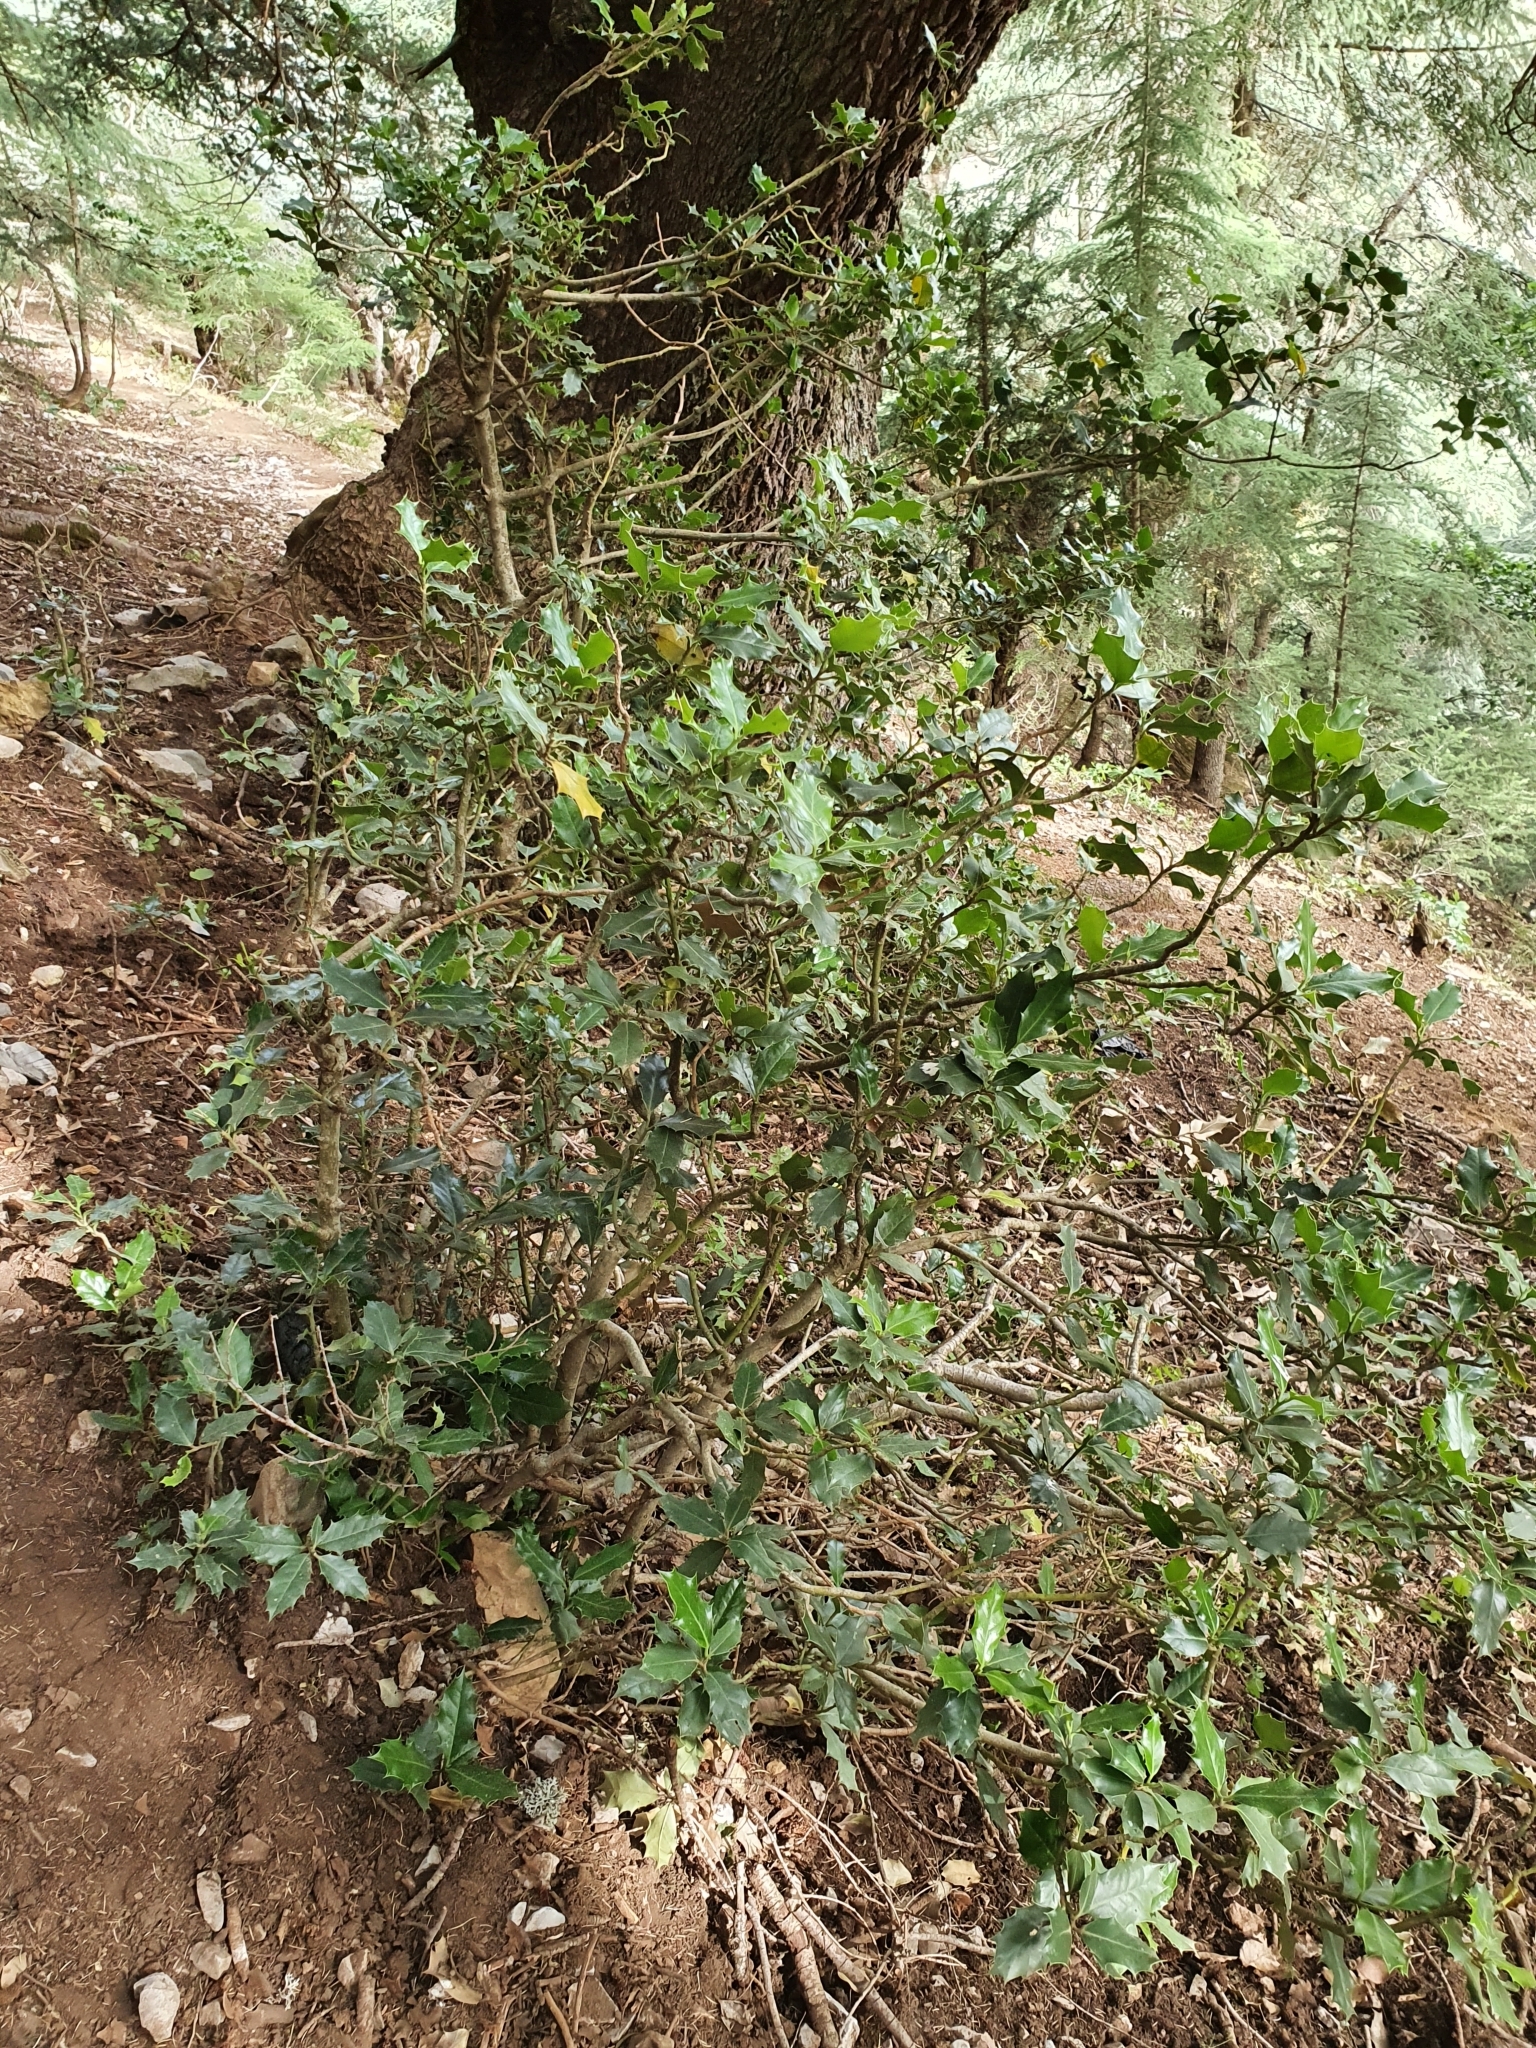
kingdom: Plantae
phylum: Tracheophyta
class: Magnoliopsida
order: Aquifoliales
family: Aquifoliaceae
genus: Ilex
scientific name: Ilex aquifolium
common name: English holly
